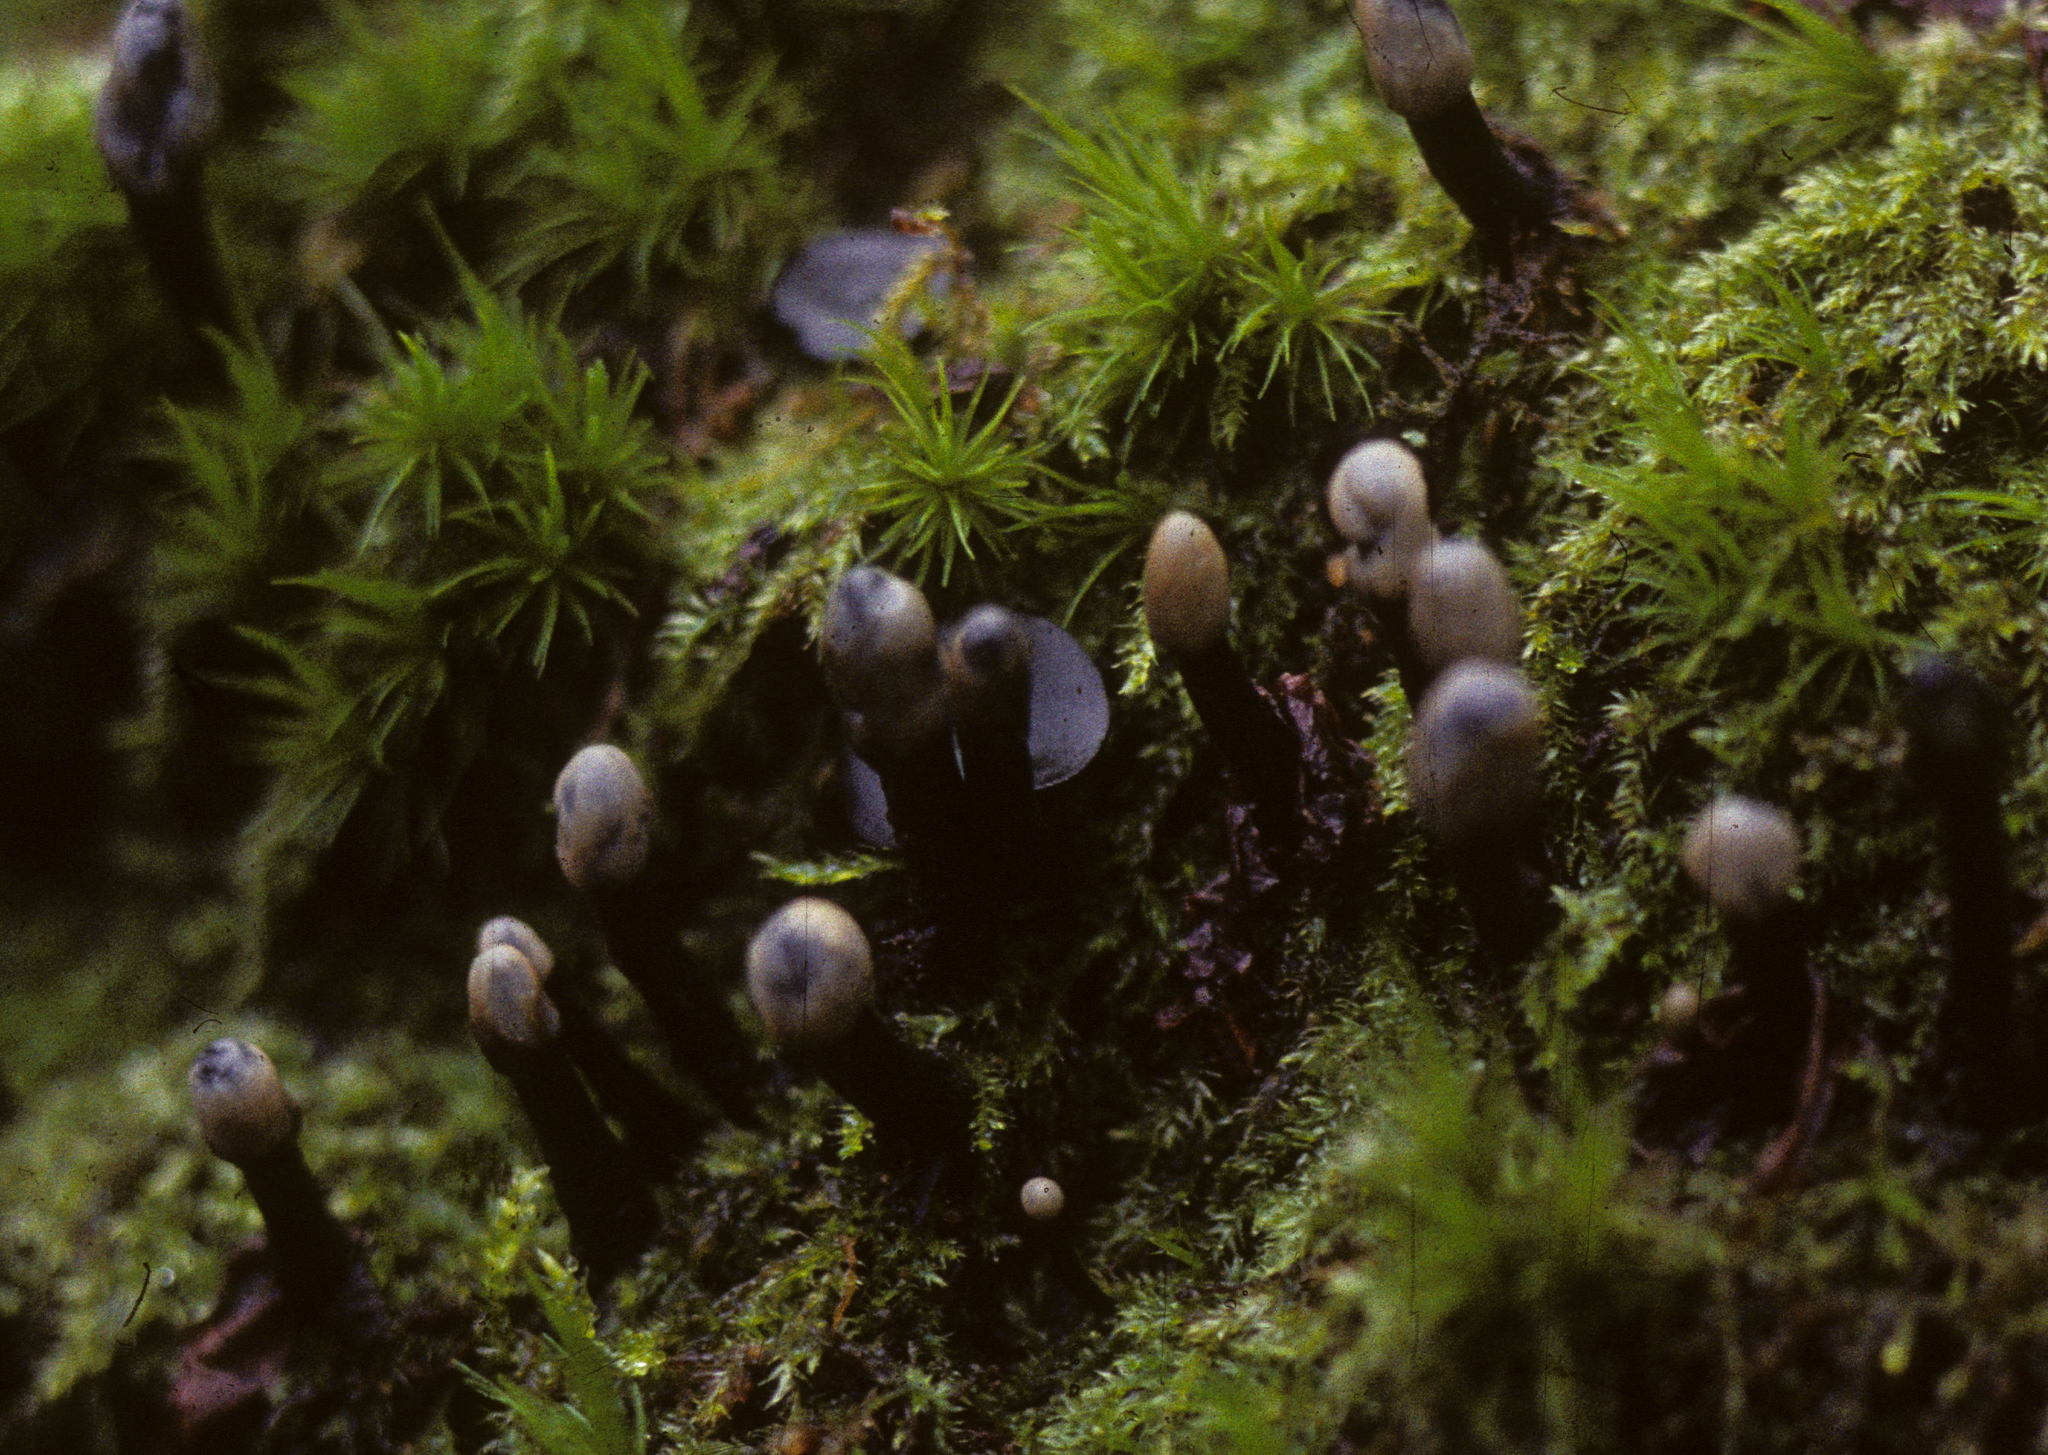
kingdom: Fungi
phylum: Ascomycota
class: Leotiomycetes
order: Helotiales
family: Bulgariaceae
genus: Holwaya
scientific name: Holwaya mucida
